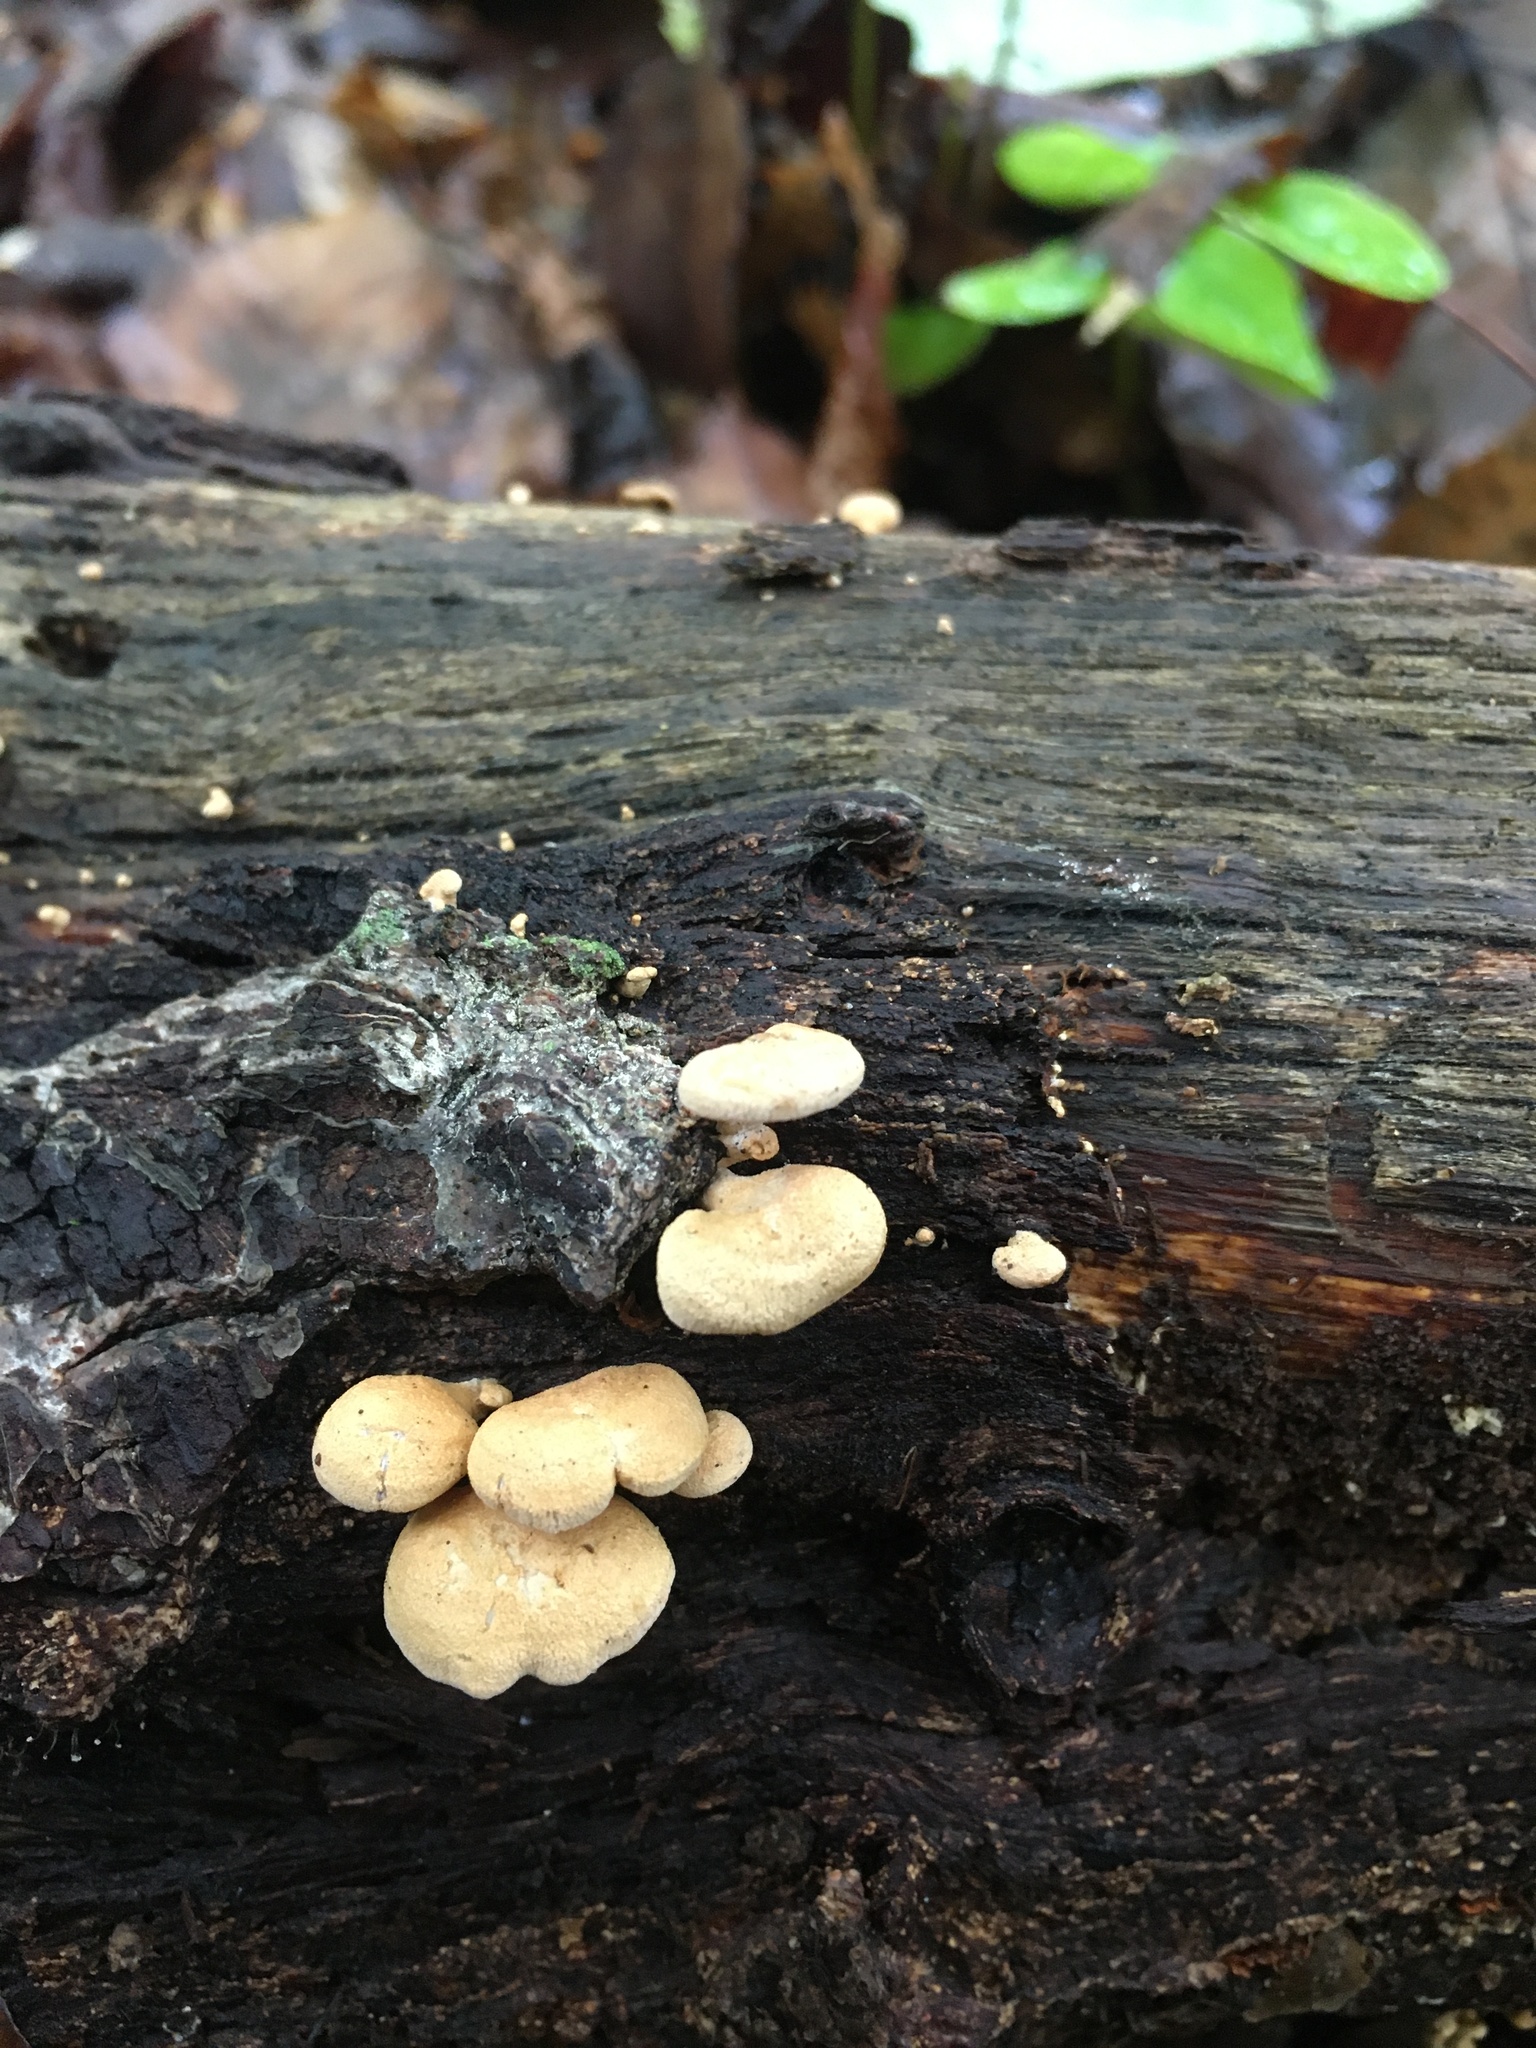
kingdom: Fungi
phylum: Basidiomycota
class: Agaricomycetes
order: Agaricales
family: Mycenaceae
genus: Panellus
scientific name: Panellus stipticus
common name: Bitter oysterling
